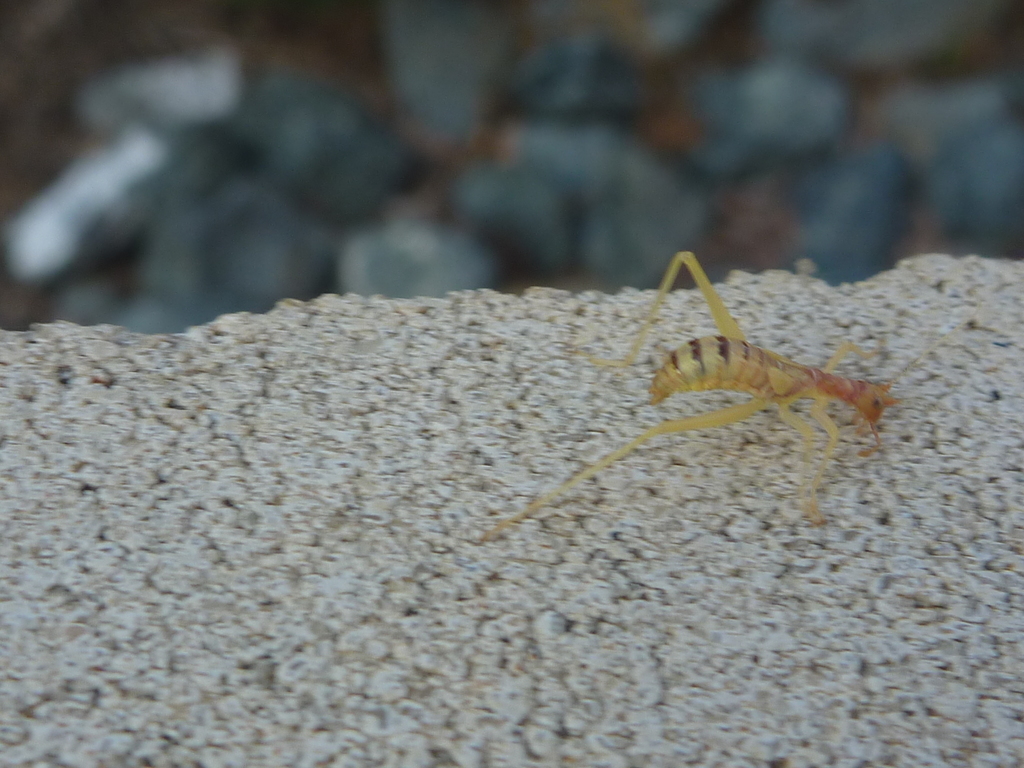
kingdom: Animalia
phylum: Arthropoda
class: Insecta
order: Orthoptera
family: Gryllidae
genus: Neoxabea
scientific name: Neoxabea bipunctata
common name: Two-spotted tree cricket
